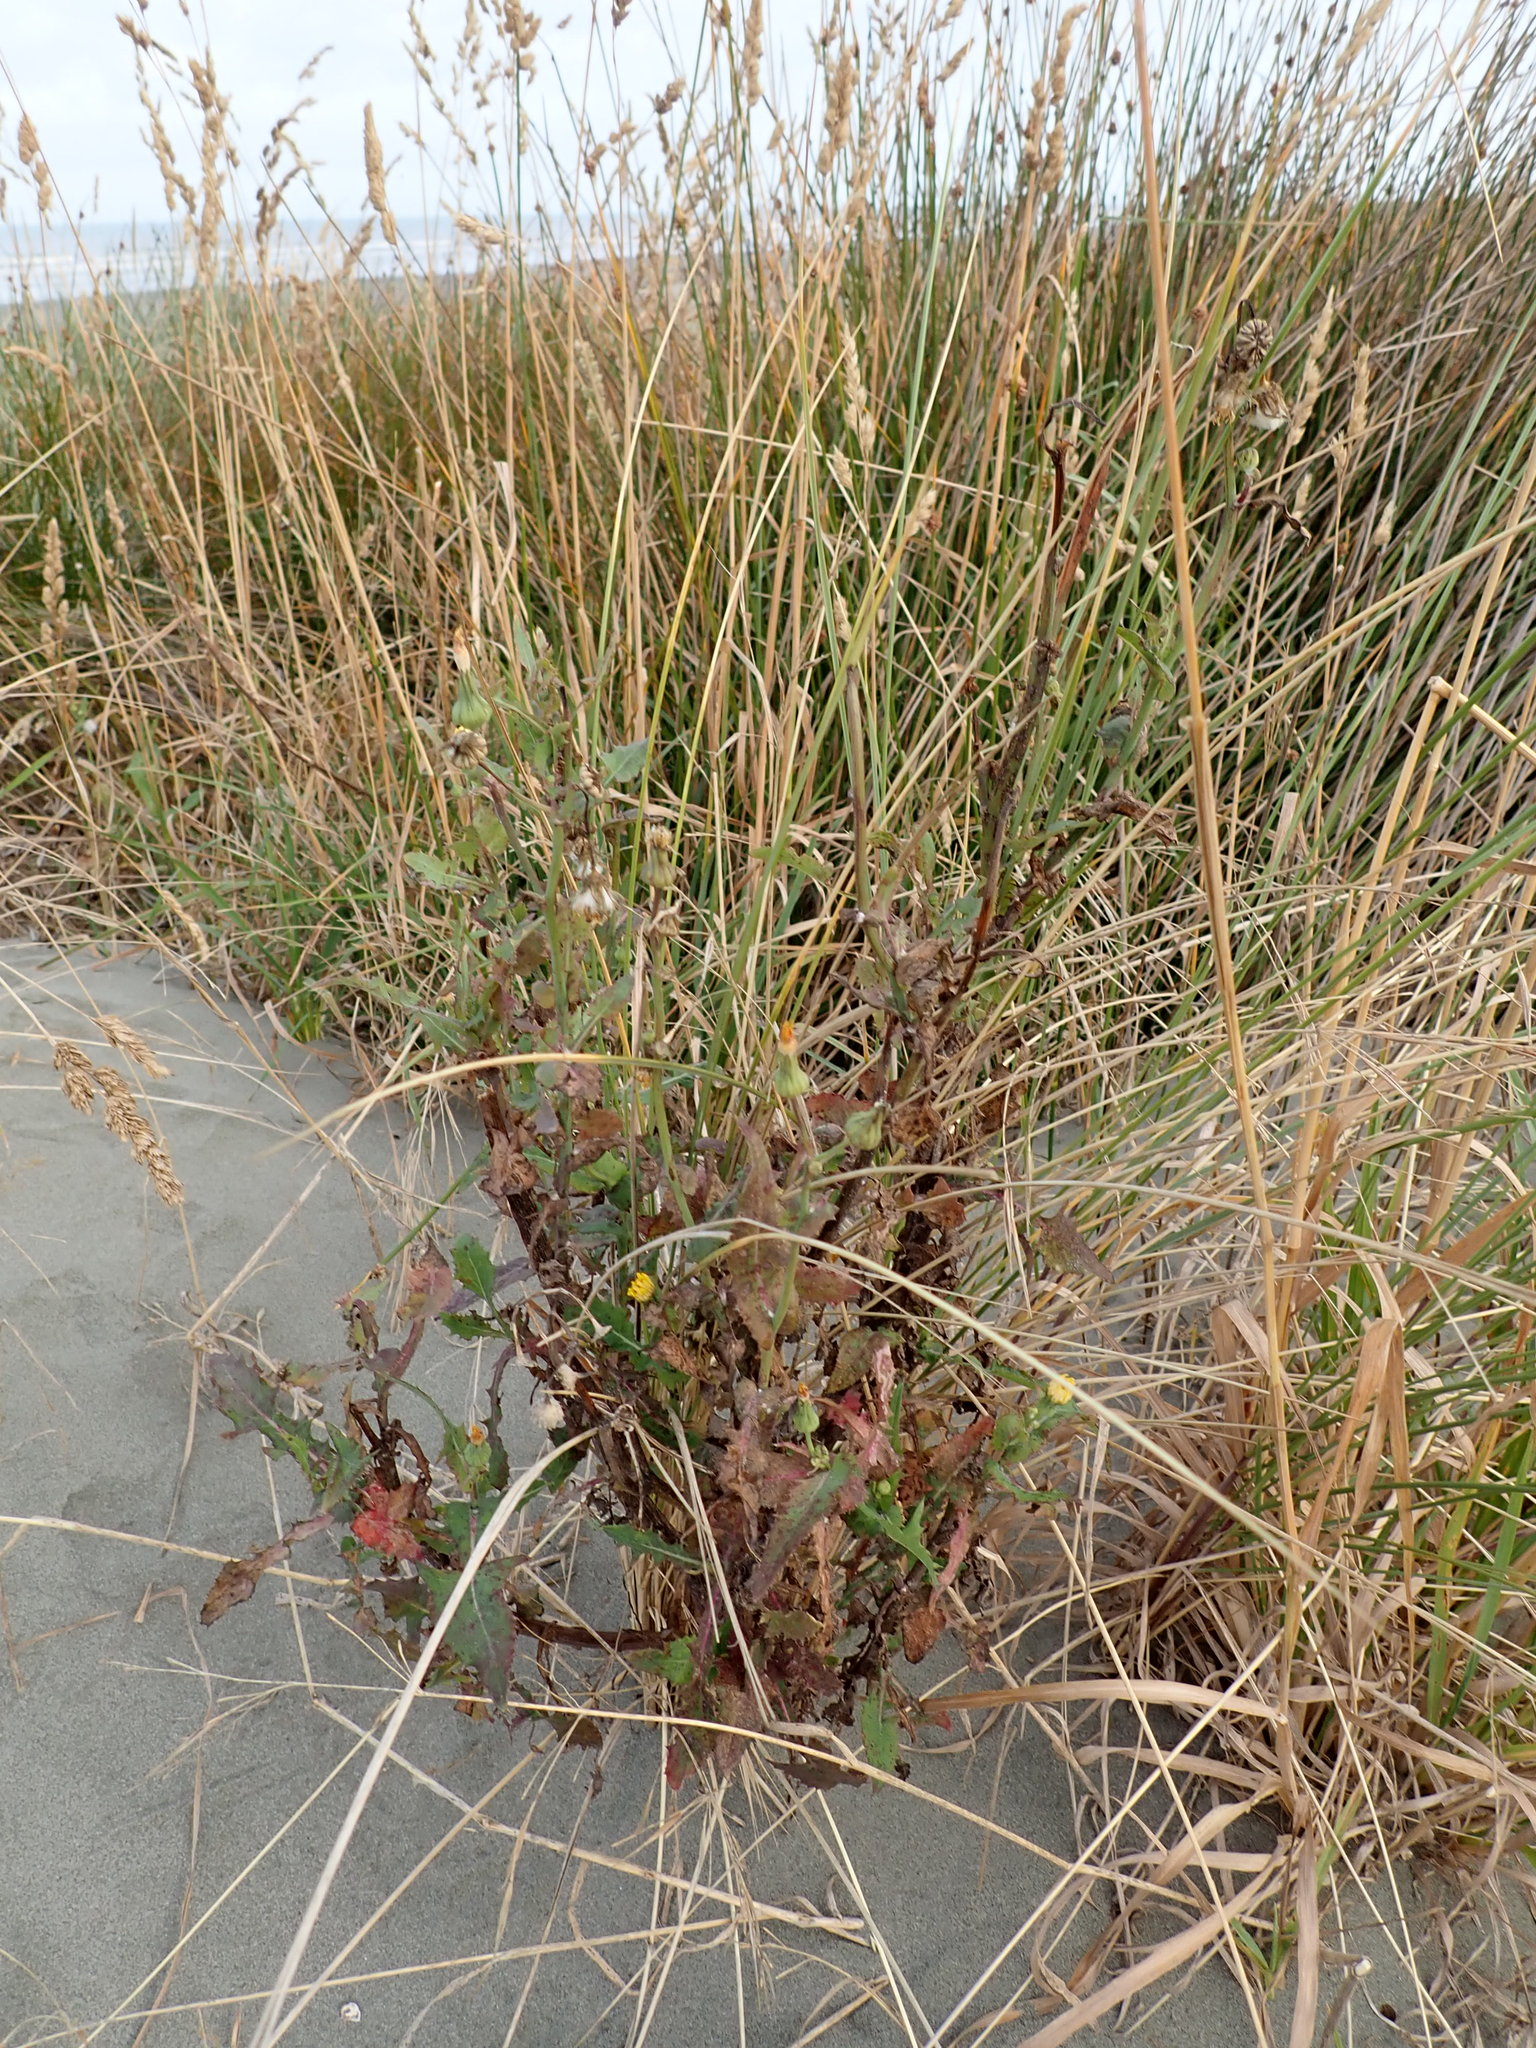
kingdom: Plantae
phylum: Tracheophyta
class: Magnoliopsida
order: Asterales
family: Asteraceae
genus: Sonchus
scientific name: Sonchus oleraceus
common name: Common sowthistle
